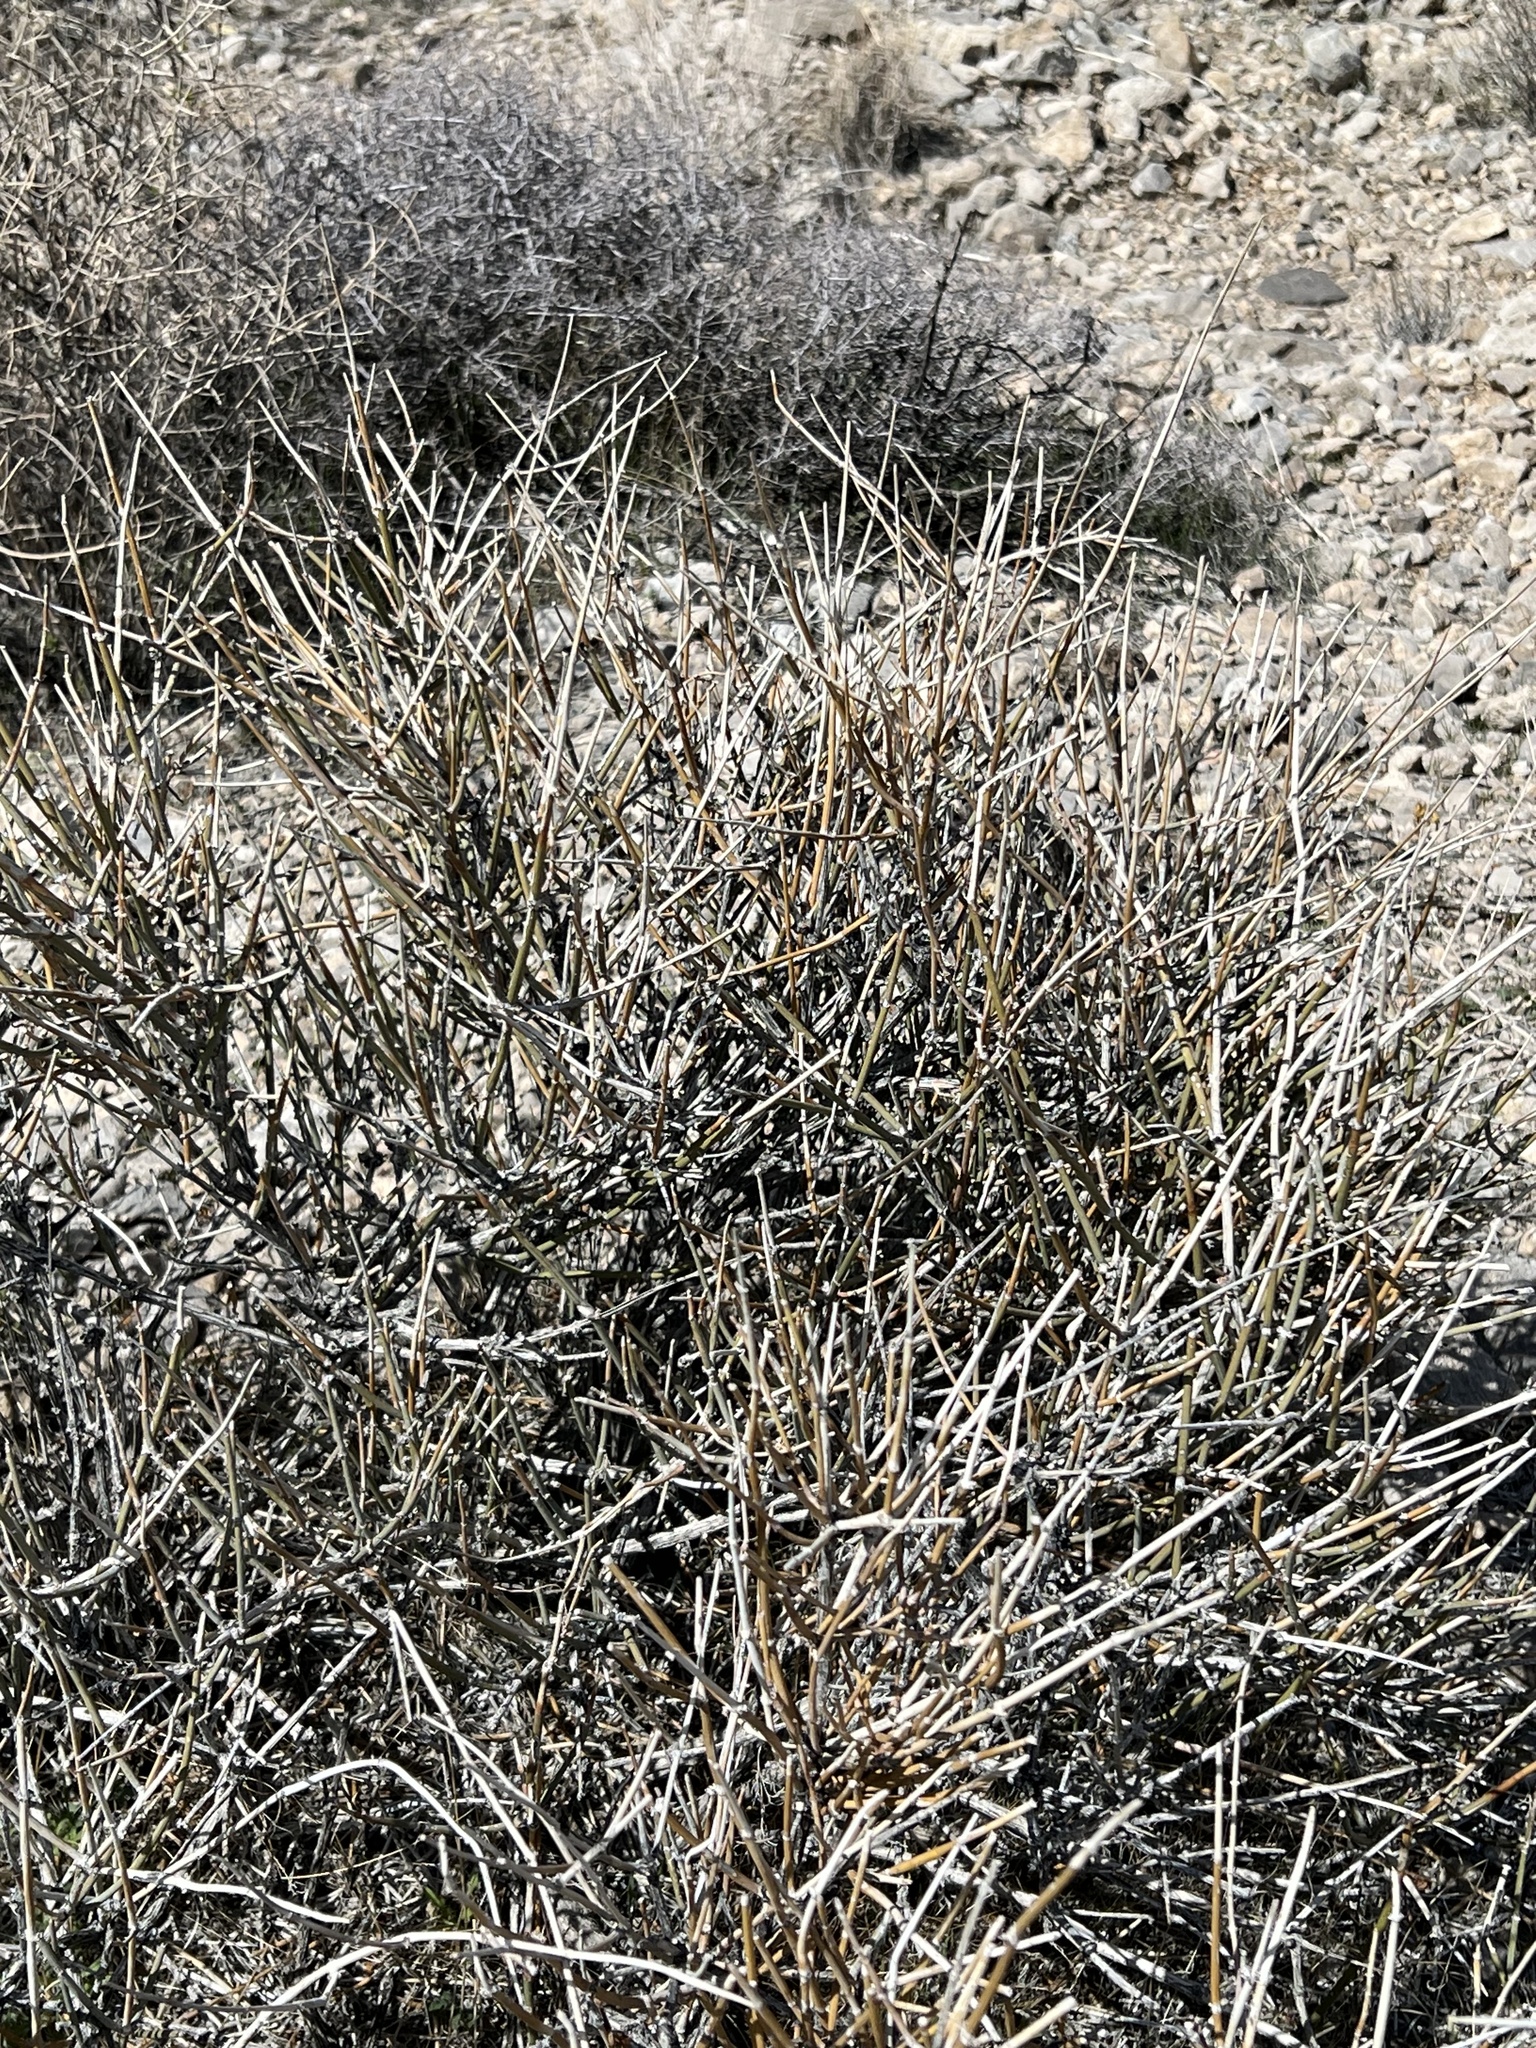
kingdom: Plantae
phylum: Tracheophyta
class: Gnetopsida
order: Ephedrales
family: Ephedraceae
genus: Ephedra
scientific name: Ephedra nevadensis
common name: Gray ephedra
